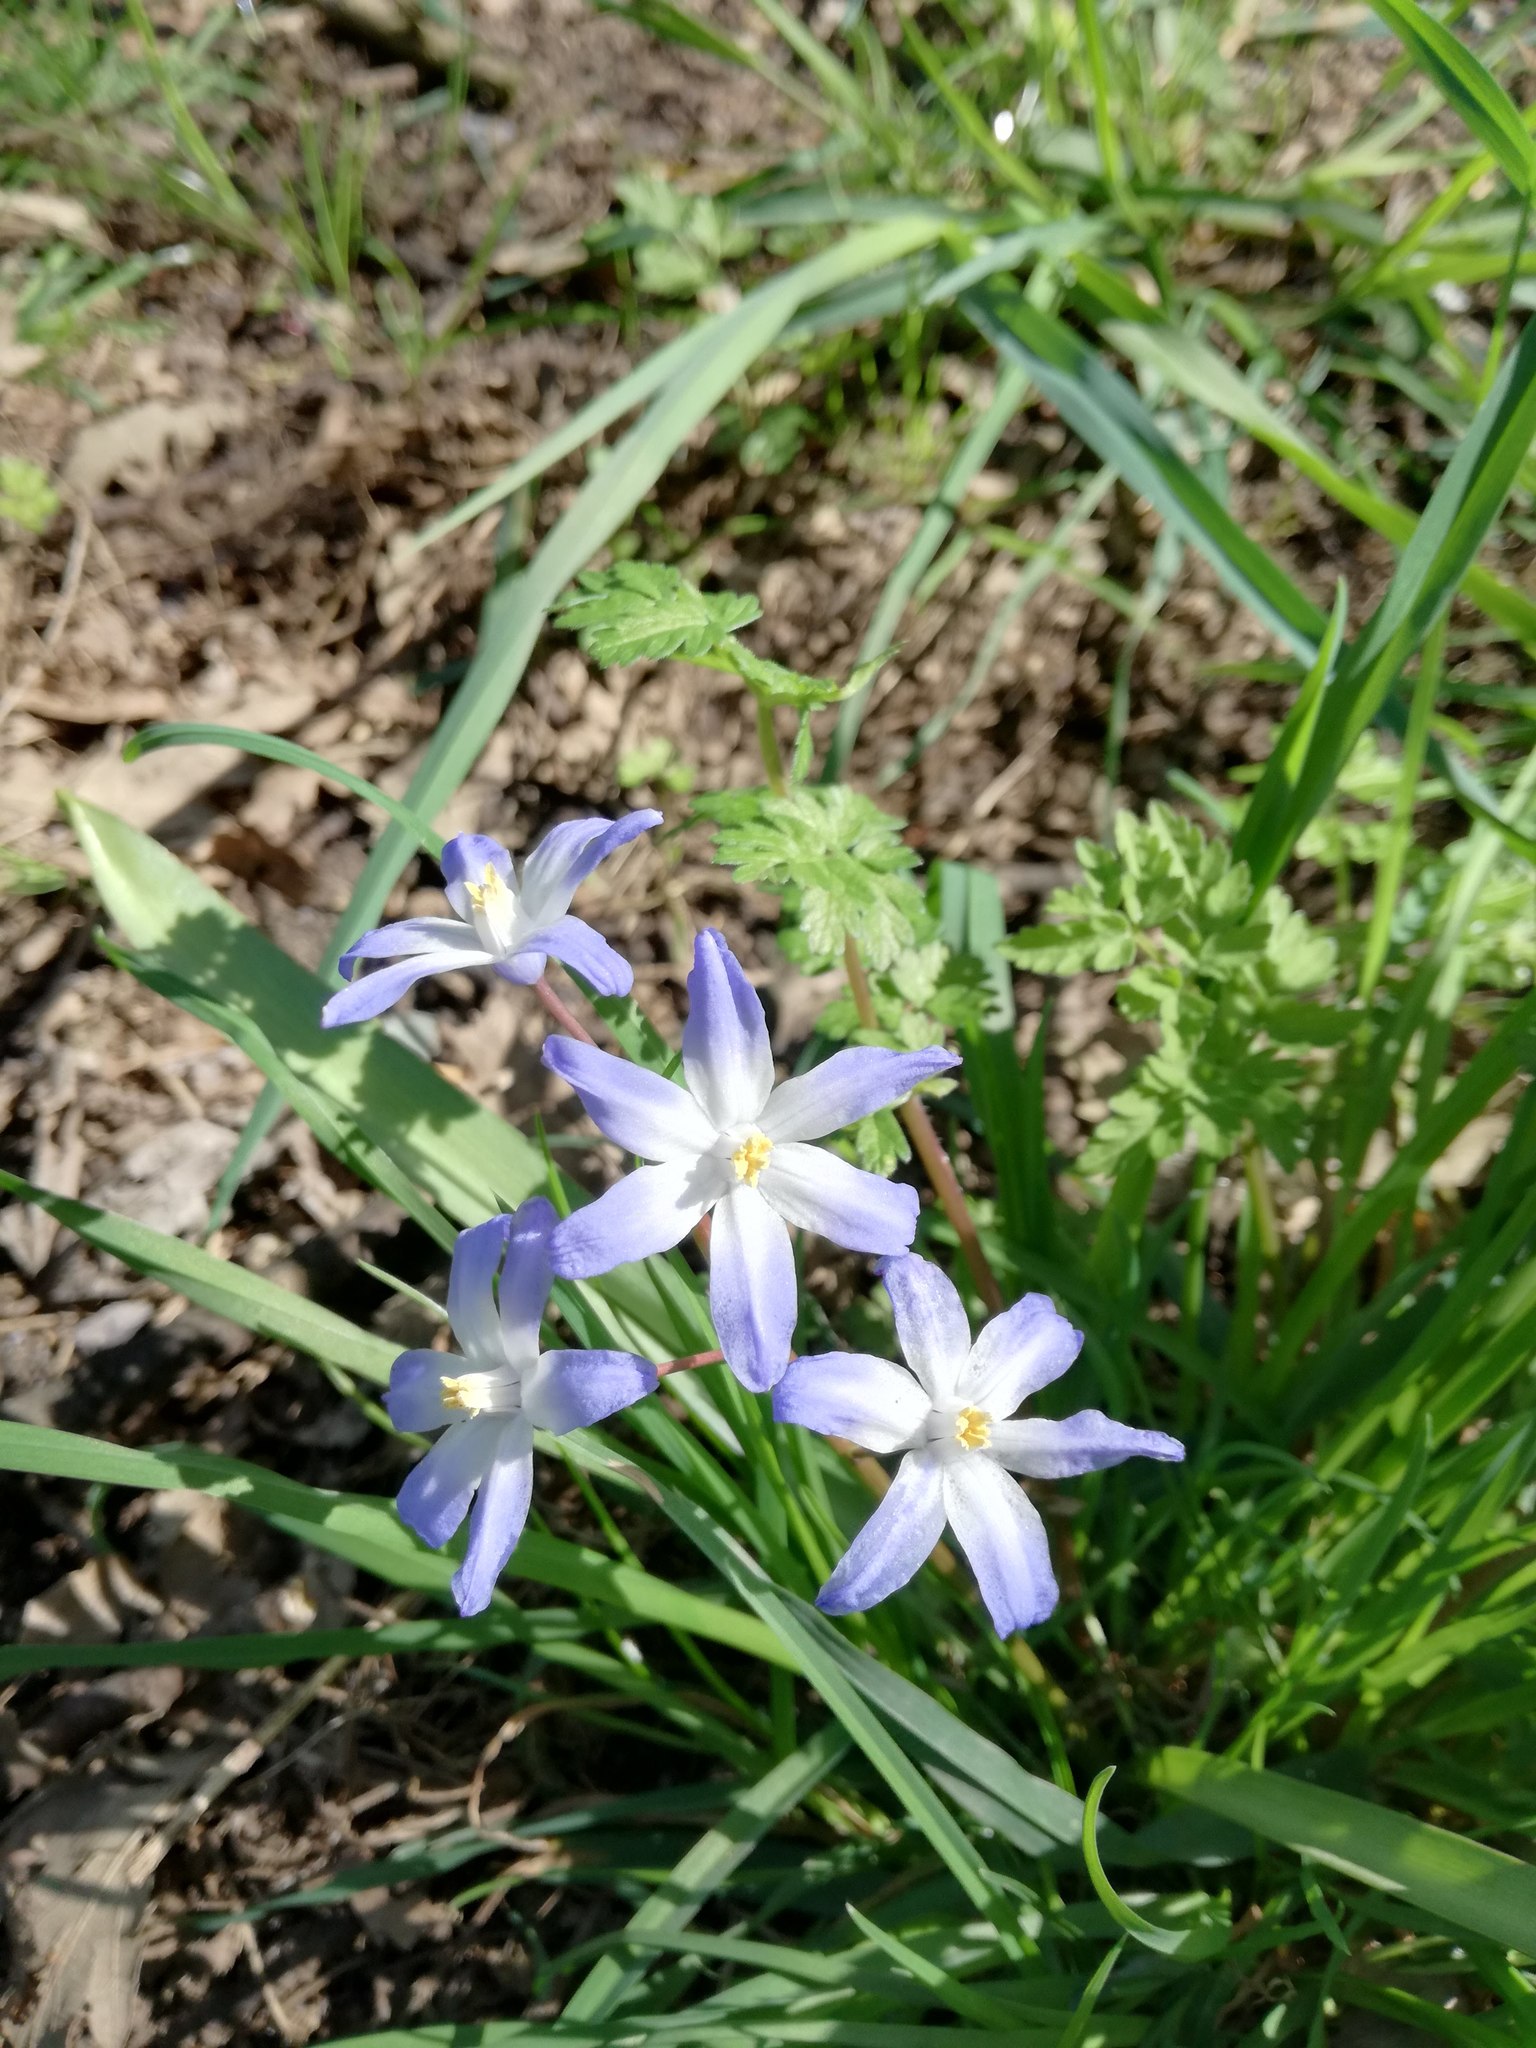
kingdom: Plantae
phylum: Tracheophyta
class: Liliopsida
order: Asparagales
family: Asparagaceae
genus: Scilla
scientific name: Scilla forbesii
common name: Glory-of-the-snow
